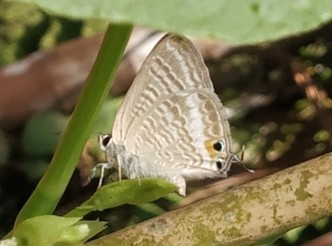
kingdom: Animalia
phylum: Arthropoda
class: Insecta
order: Lepidoptera
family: Lycaenidae
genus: Lampides
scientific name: Lampides boeticus
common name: Long-tailed blue
